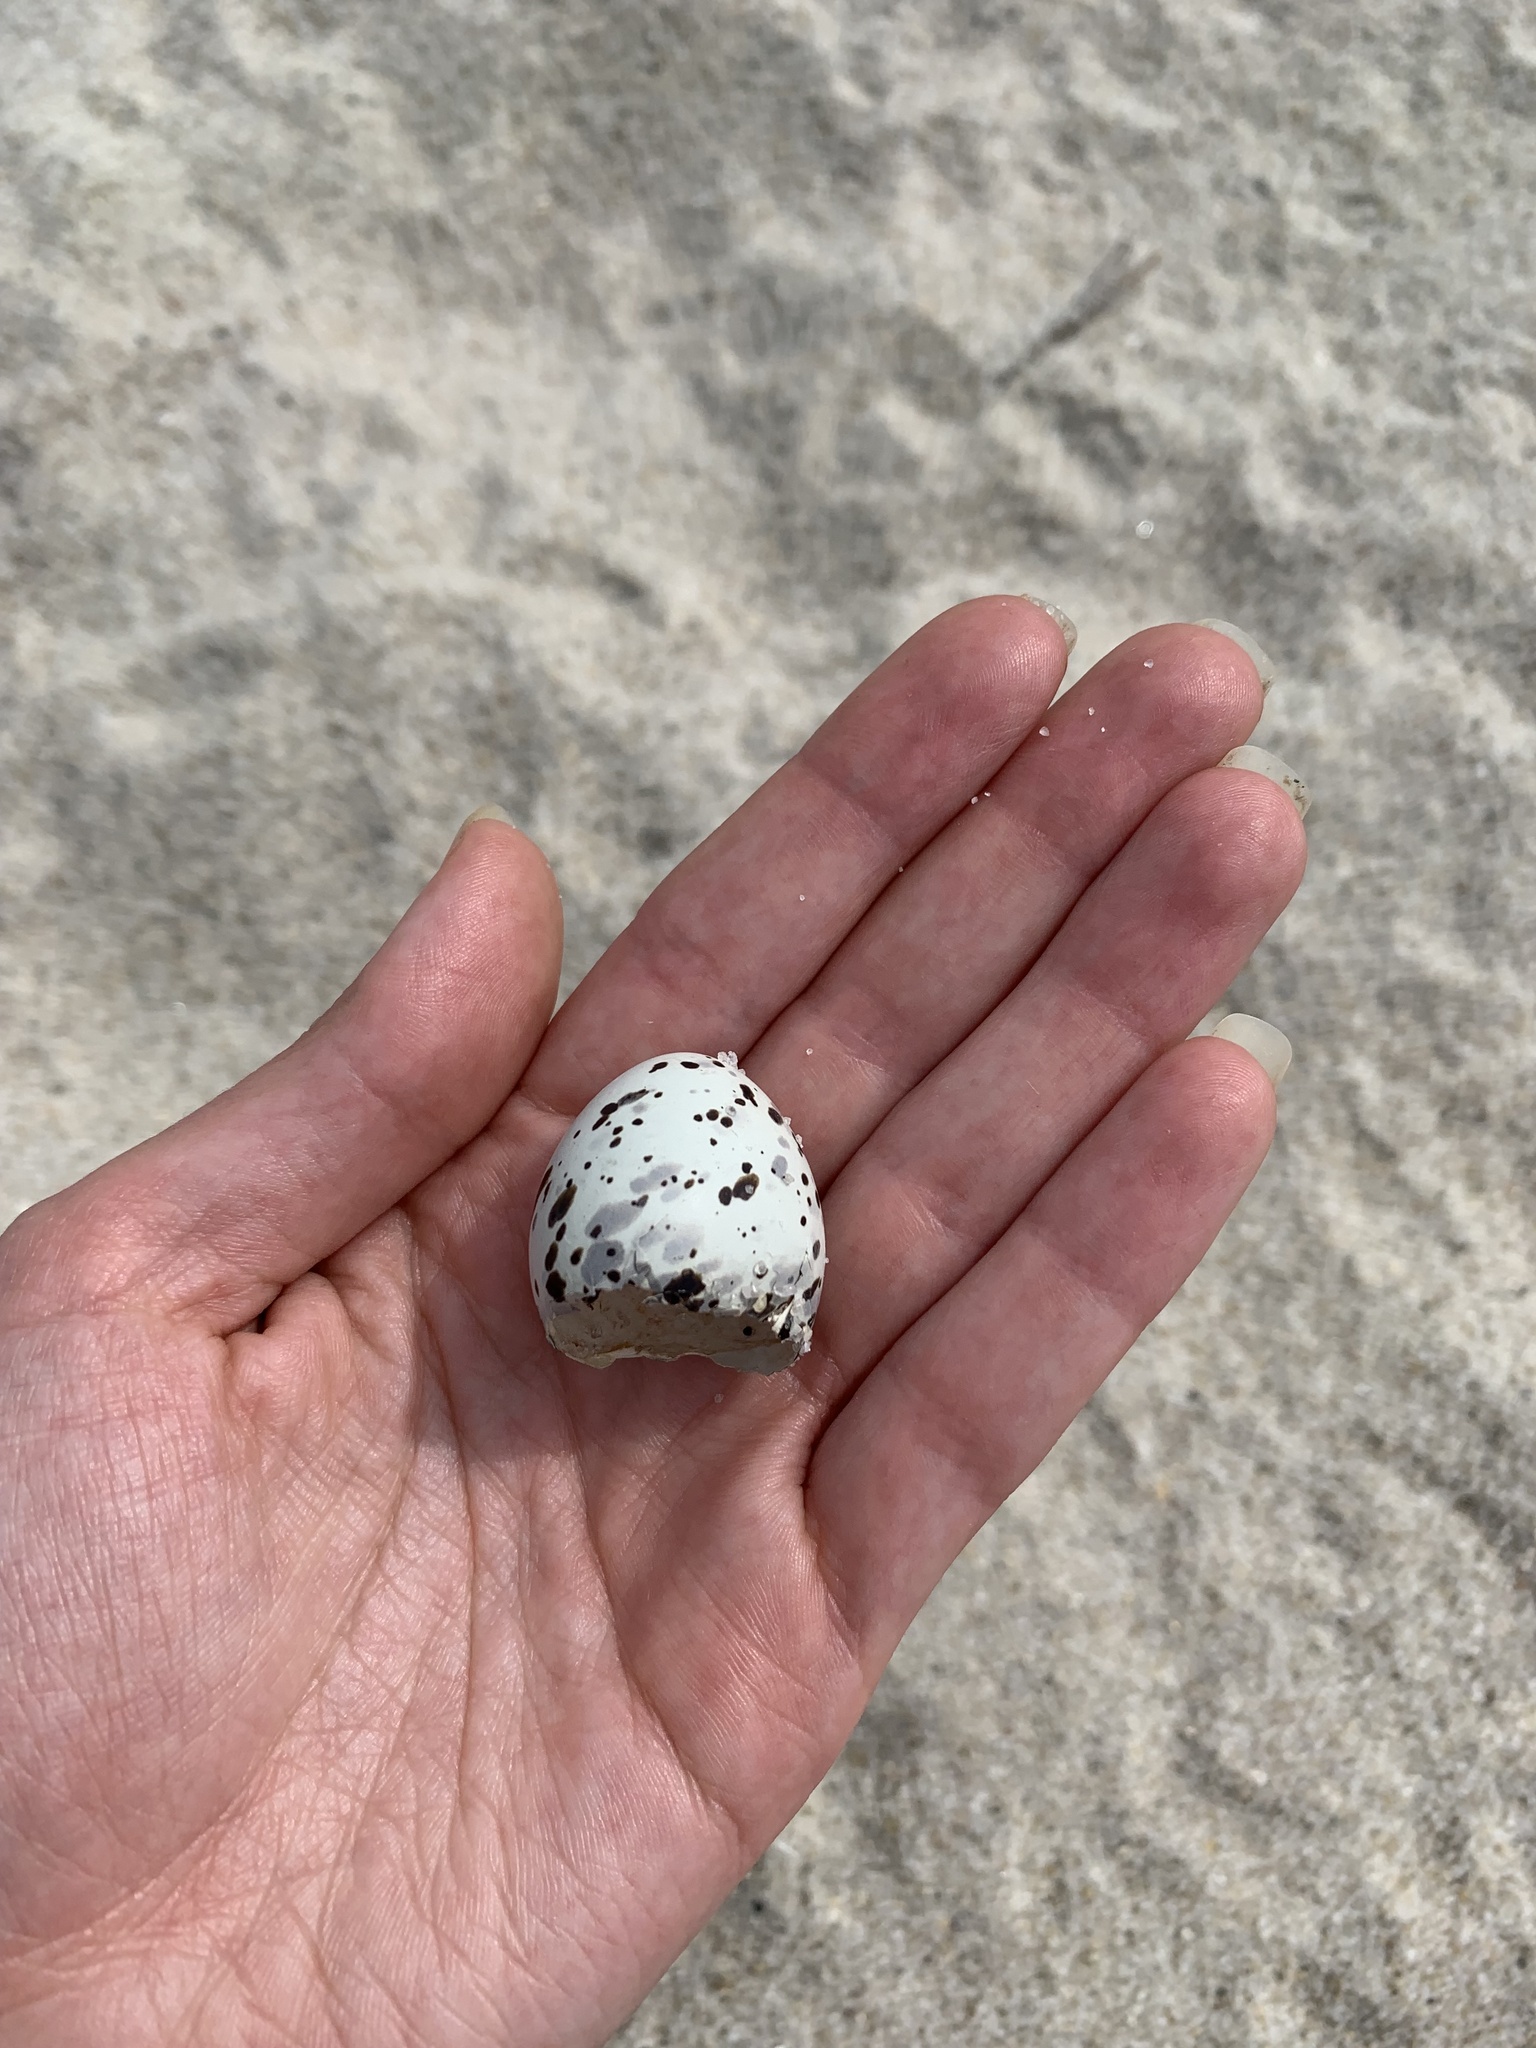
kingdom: Animalia
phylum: Chordata
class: Aves
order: Charadriiformes
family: Laridae
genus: Sternula
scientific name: Sternula antillarum
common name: Least tern
